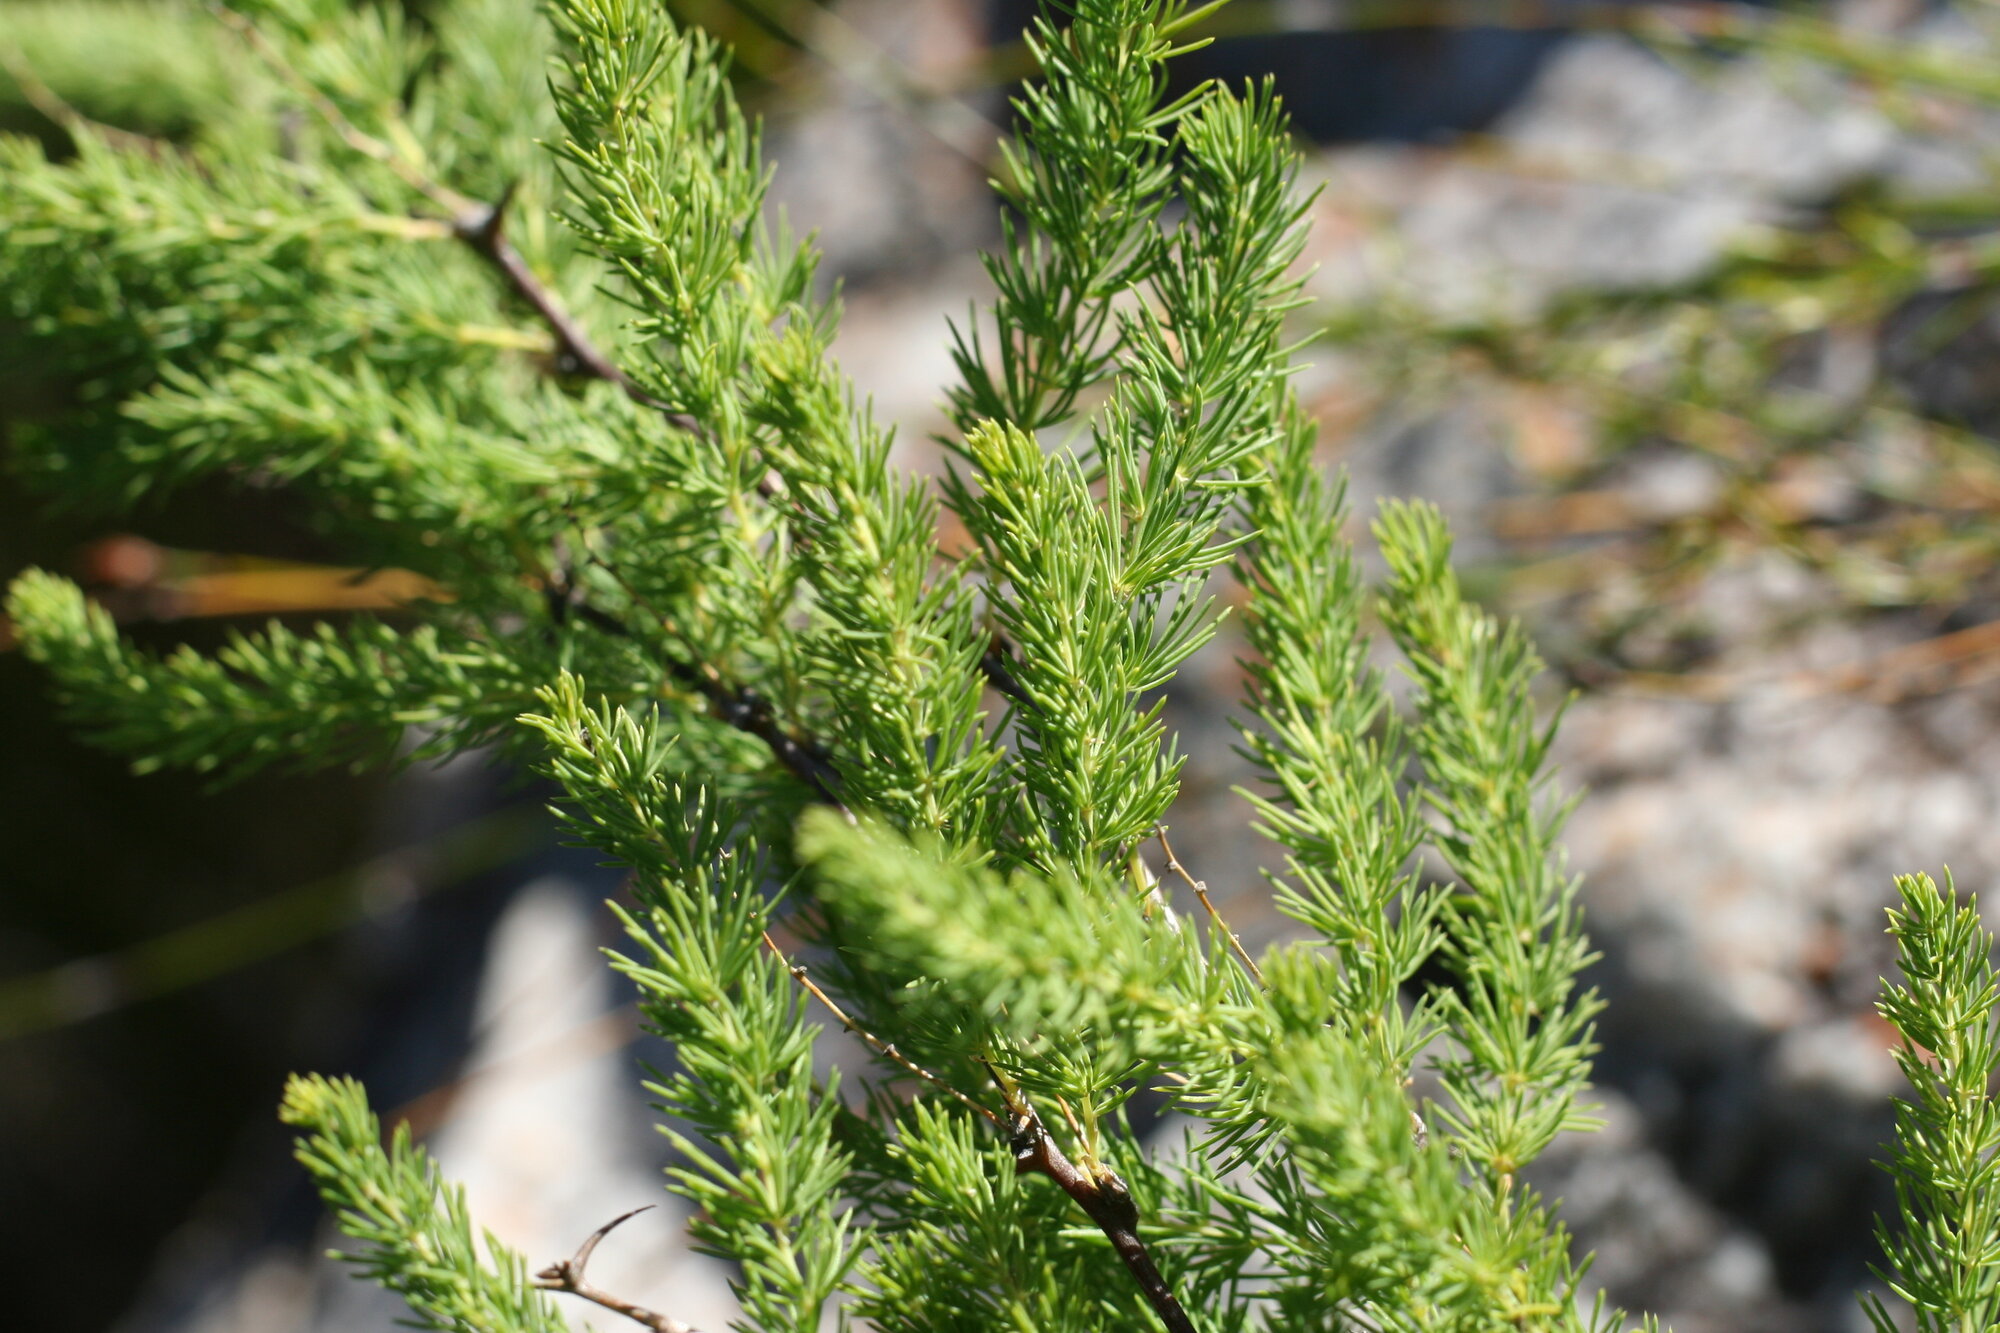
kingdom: Plantae
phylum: Tracheophyta
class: Liliopsida
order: Asparagales
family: Asparagaceae
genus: Asparagus
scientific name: Asparagus rubicundus
